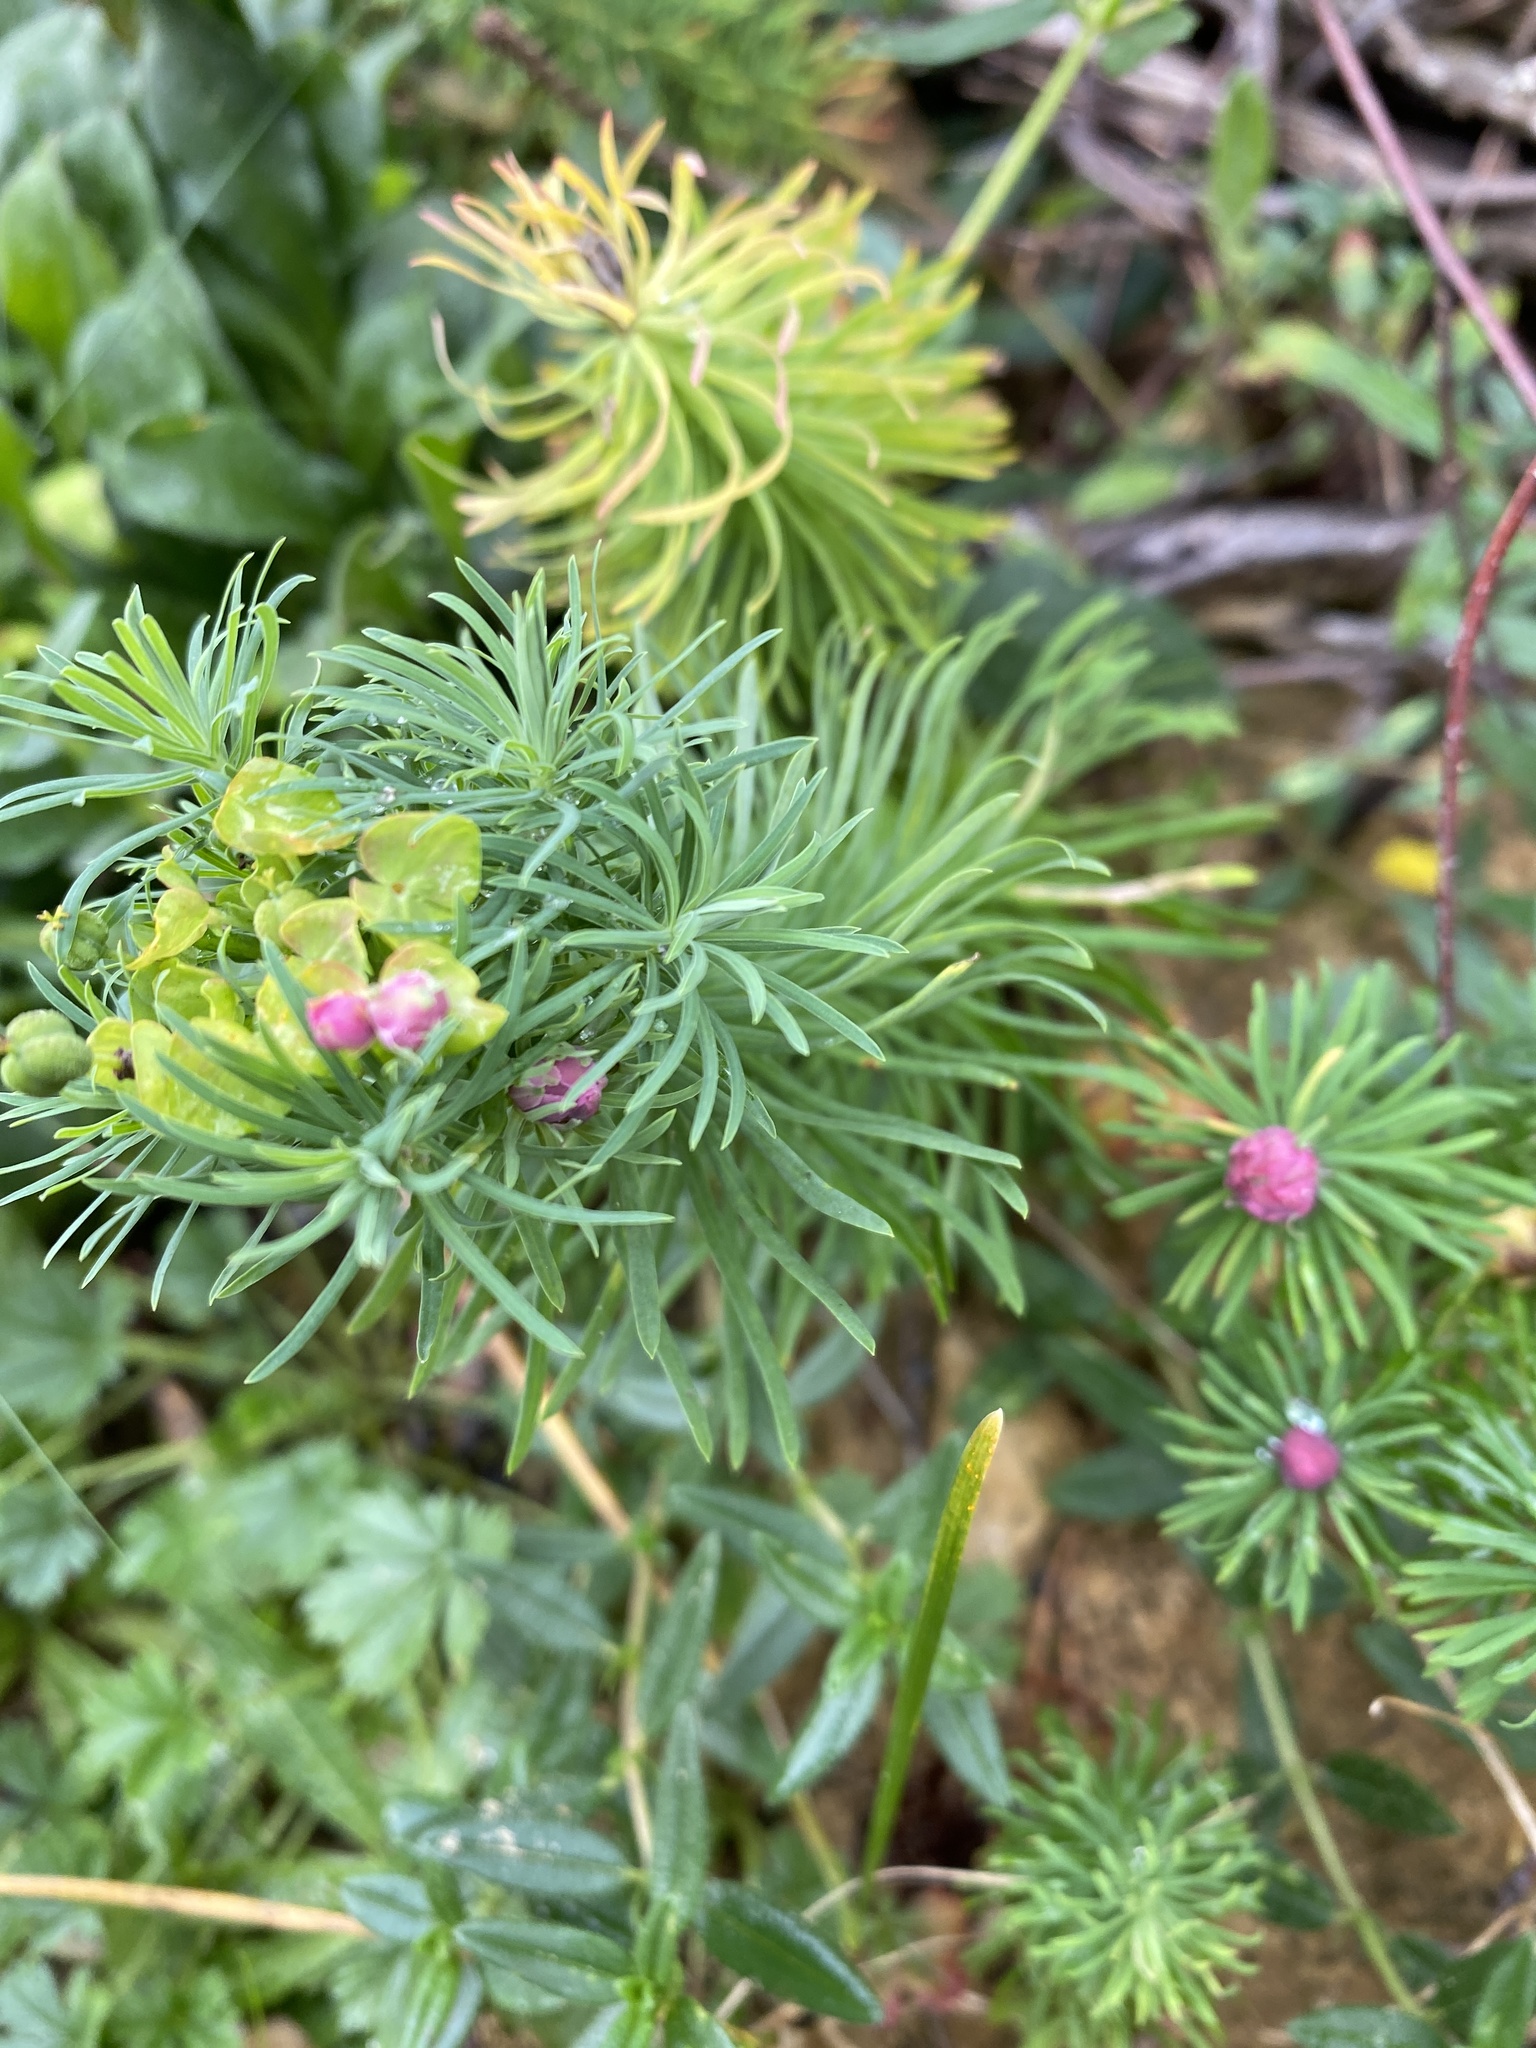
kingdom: Plantae
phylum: Tracheophyta
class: Magnoliopsida
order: Malpighiales
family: Euphorbiaceae
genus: Euphorbia
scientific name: Euphorbia cyparissias
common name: Cypress spurge
